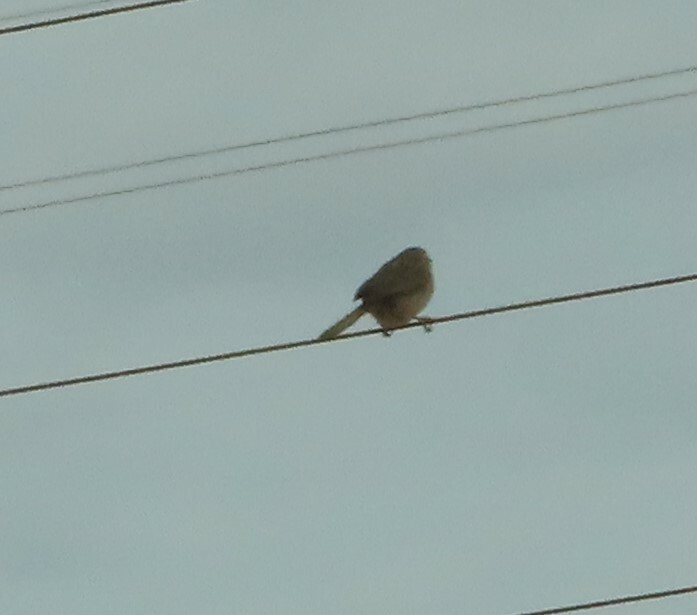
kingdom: Animalia
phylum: Chordata
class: Aves
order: Passeriformes
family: Cisticolidae
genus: Cisticola
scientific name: Cisticola subruficapilla
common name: Grey-backed cisticola
